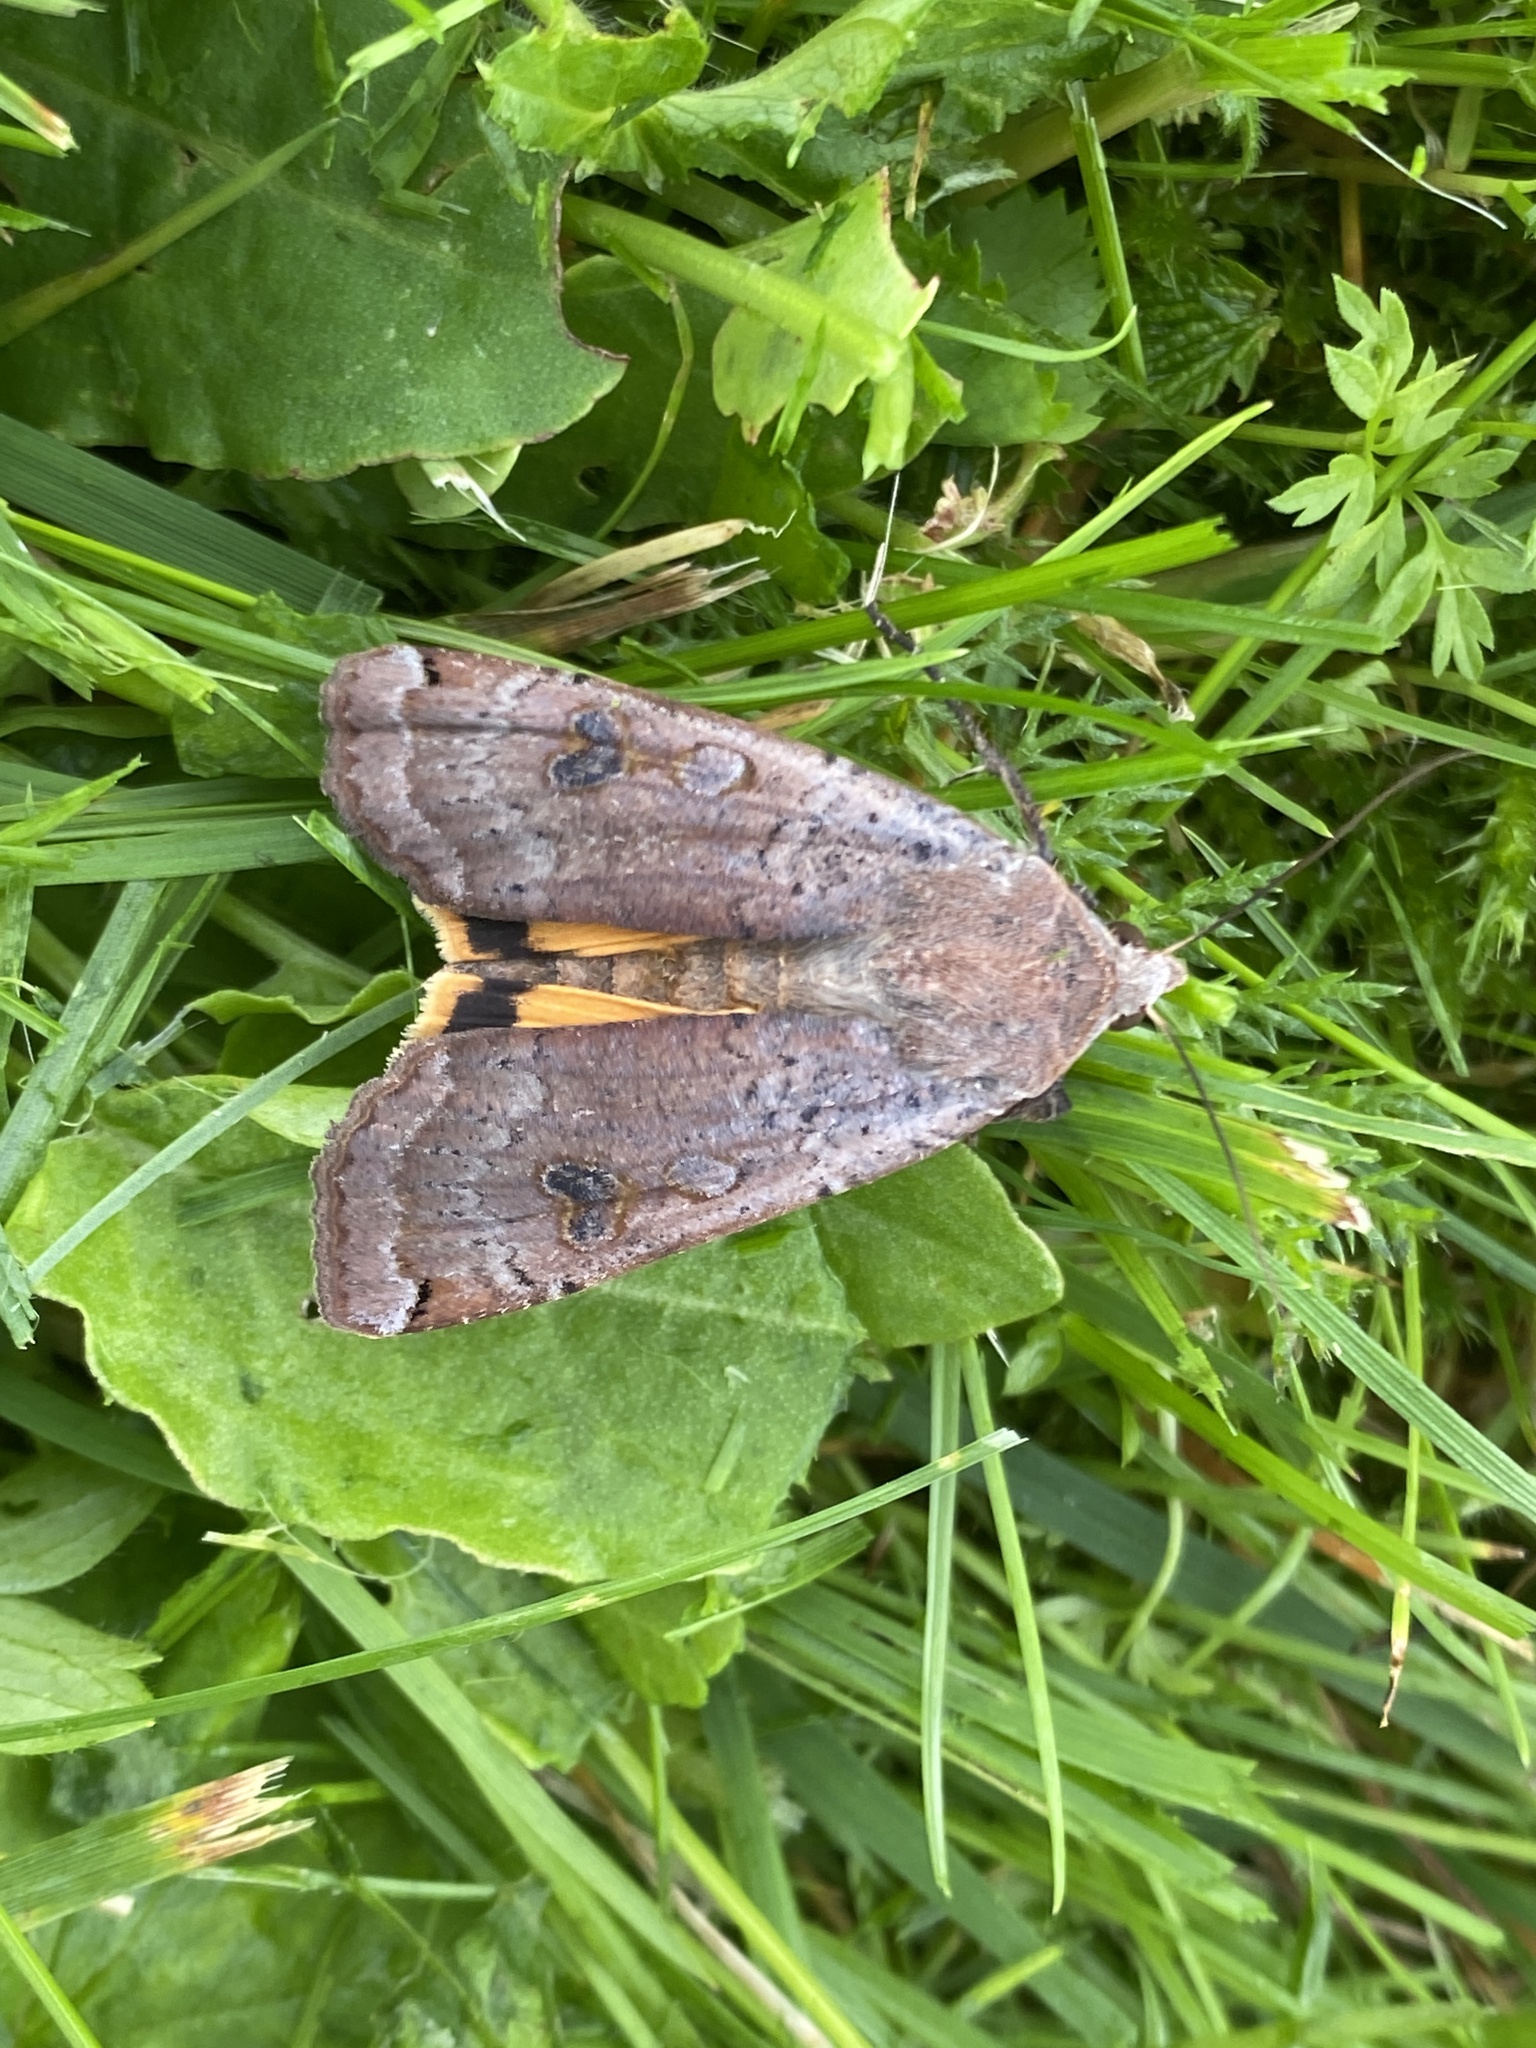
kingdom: Animalia
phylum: Arthropoda
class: Insecta
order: Lepidoptera
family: Noctuidae
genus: Noctua
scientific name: Noctua pronuba
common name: Large yellow underwing
